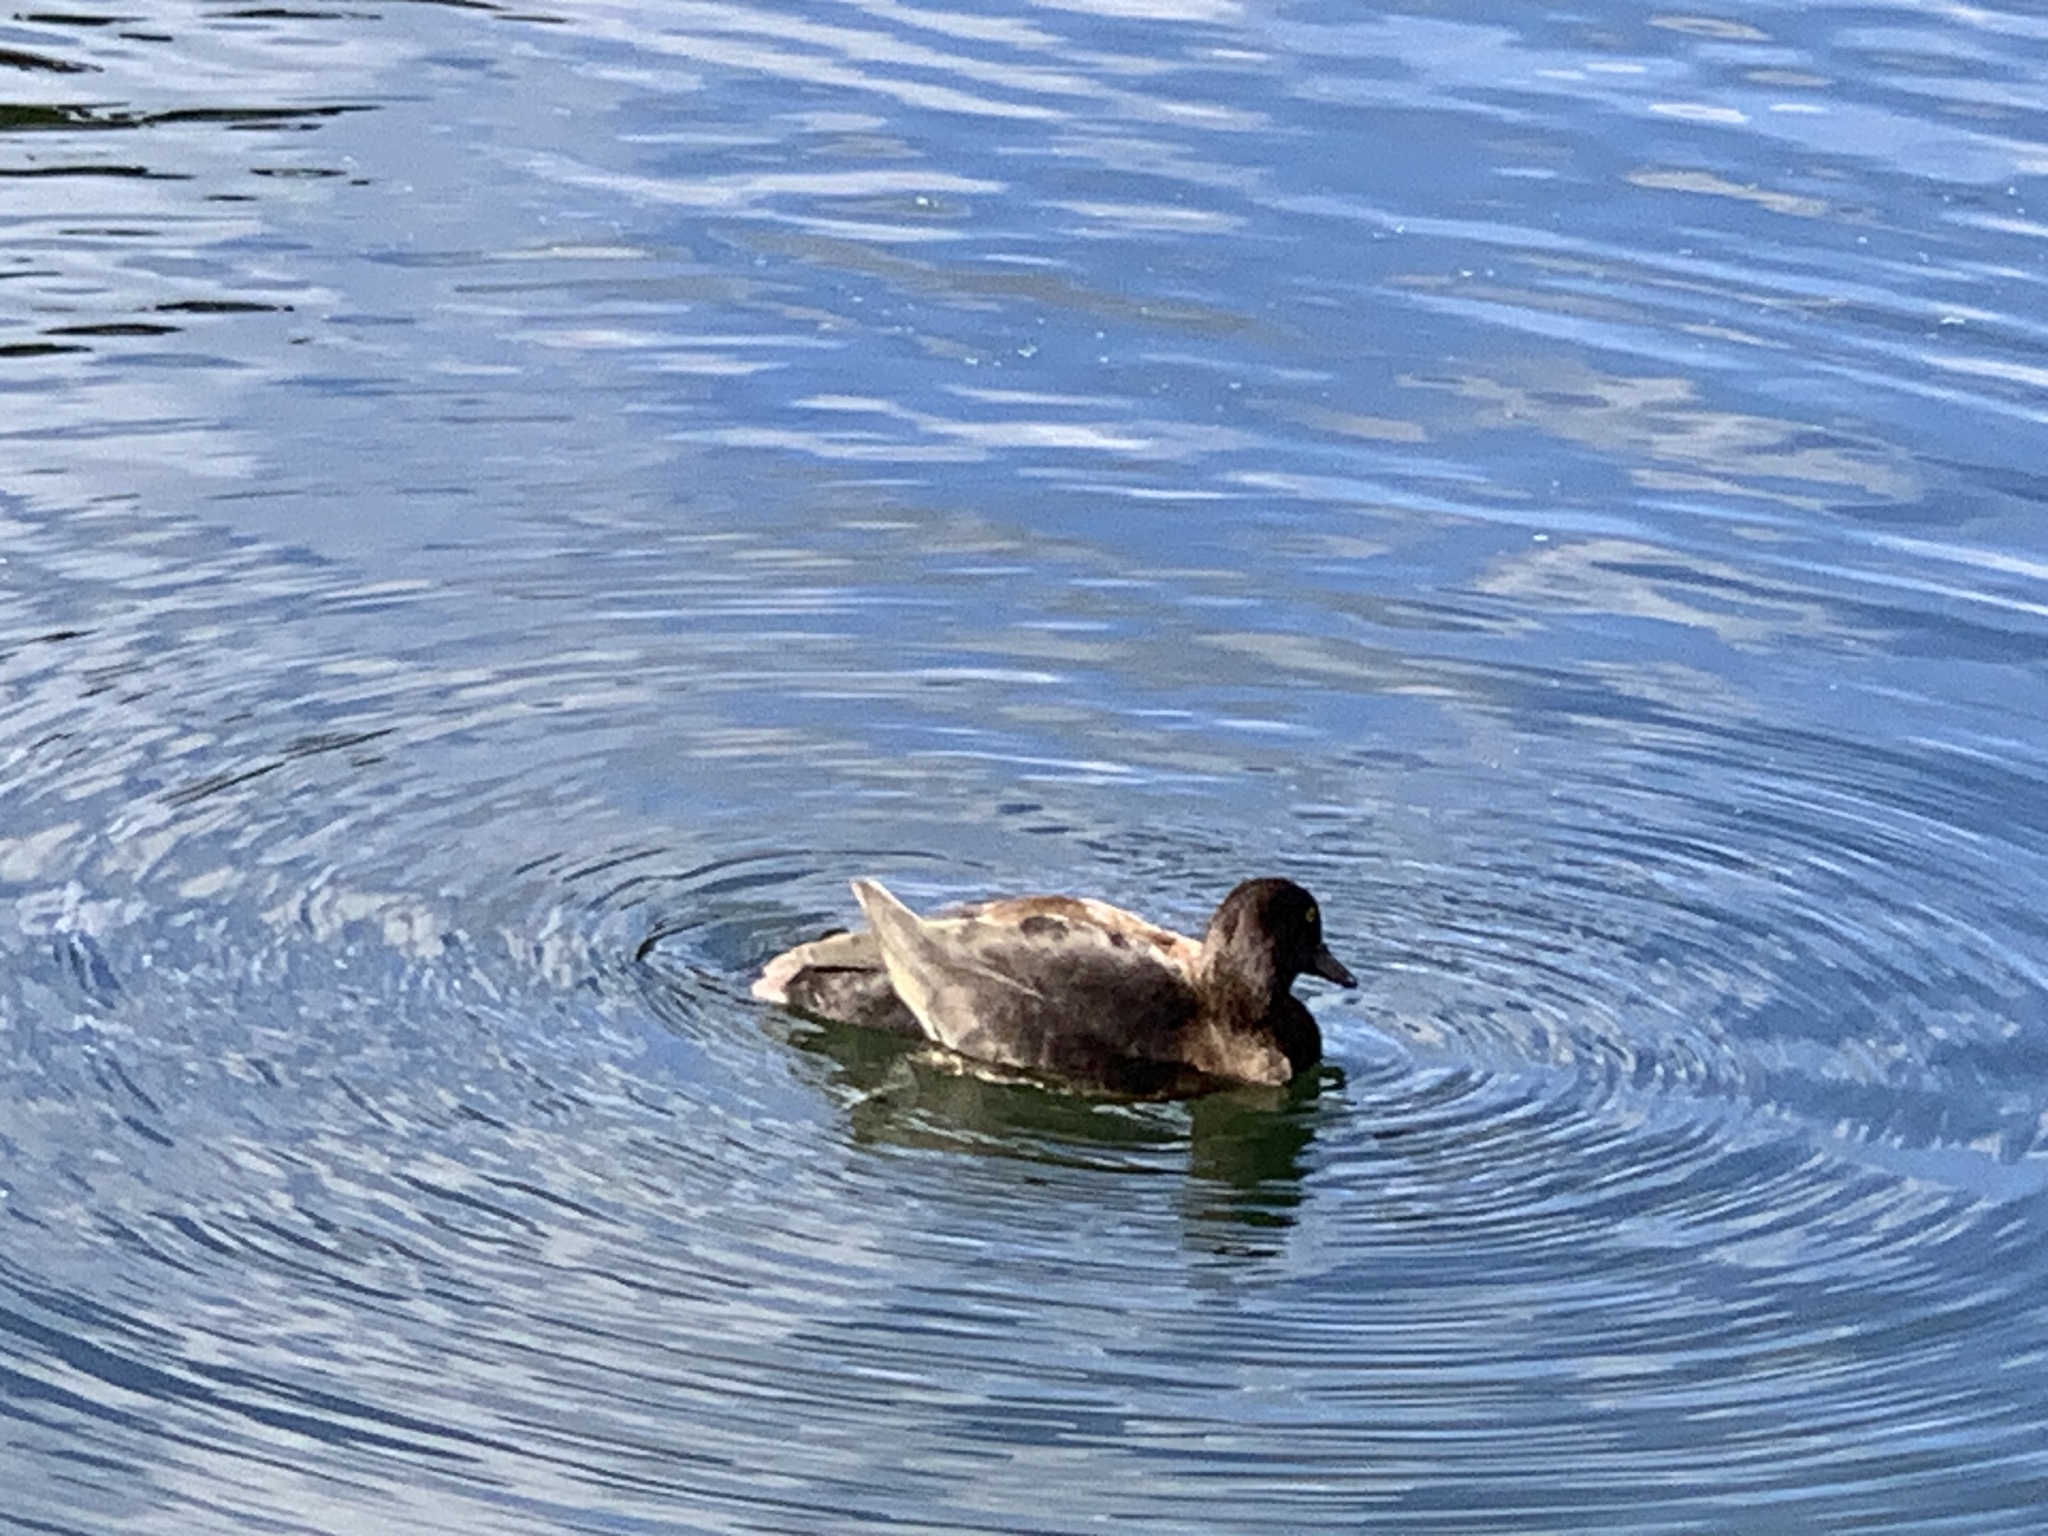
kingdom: Animalia
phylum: Chordata
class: Aves
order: Anseriformes
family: Anatidae
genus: Aythya
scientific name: Aythya fuligula
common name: Tufted duck
